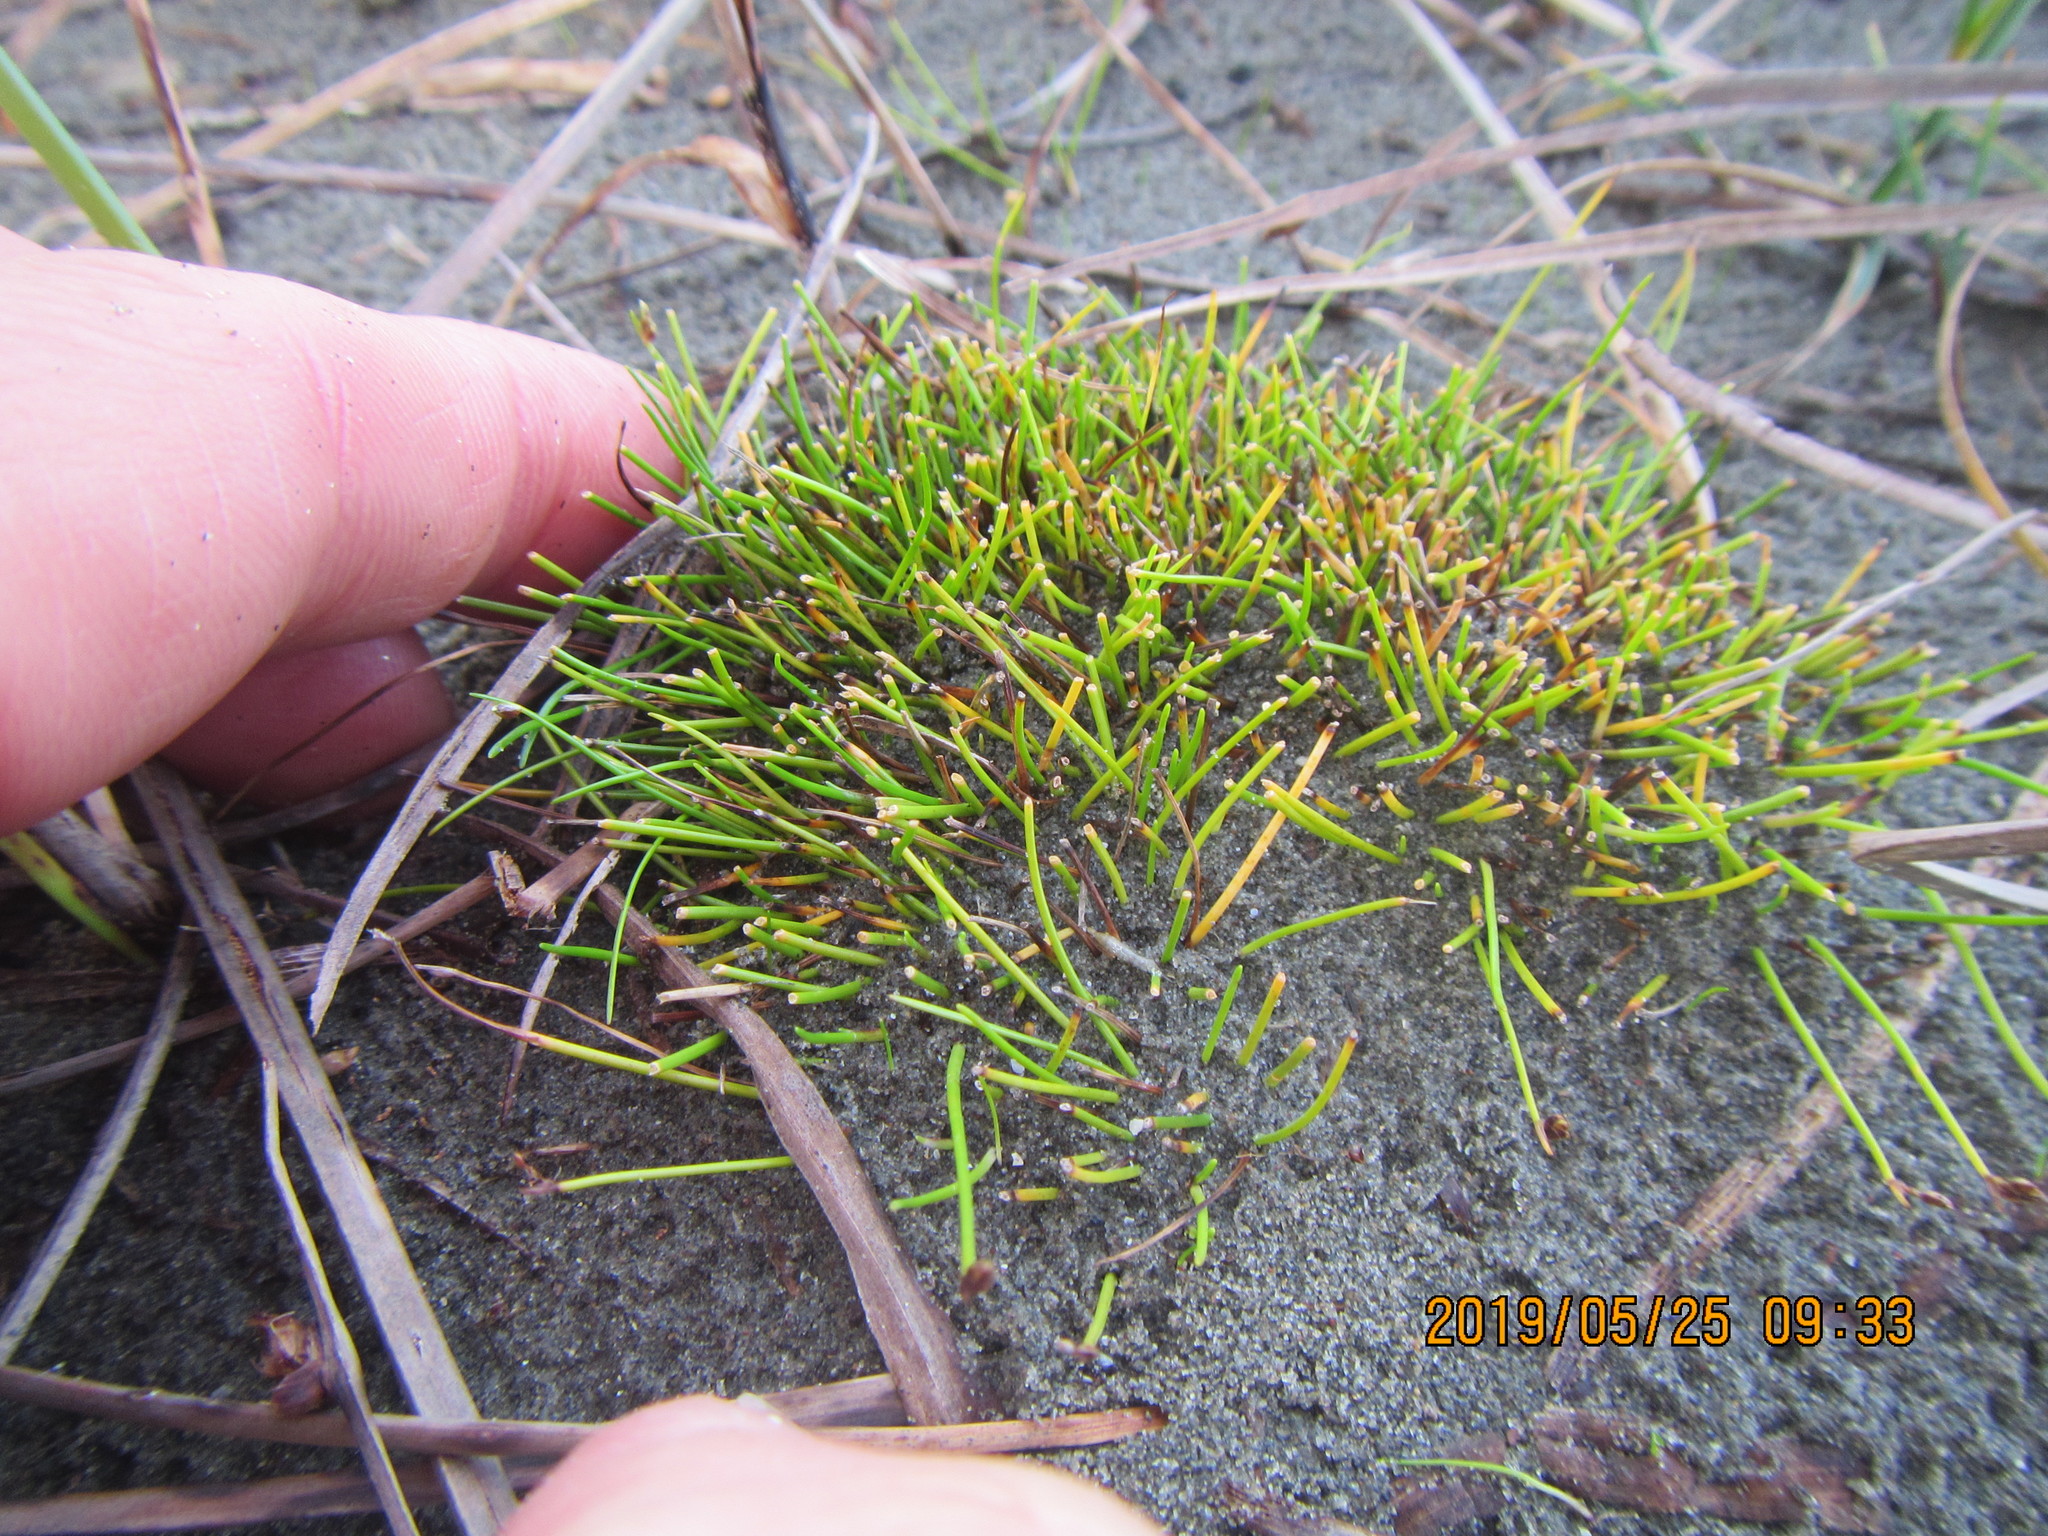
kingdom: Plantae
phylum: Tracheophyta
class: Liliopsida
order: Poales
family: Cyperaceae
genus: Isolepis
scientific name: Isolepis cernua
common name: Slender club-rush
